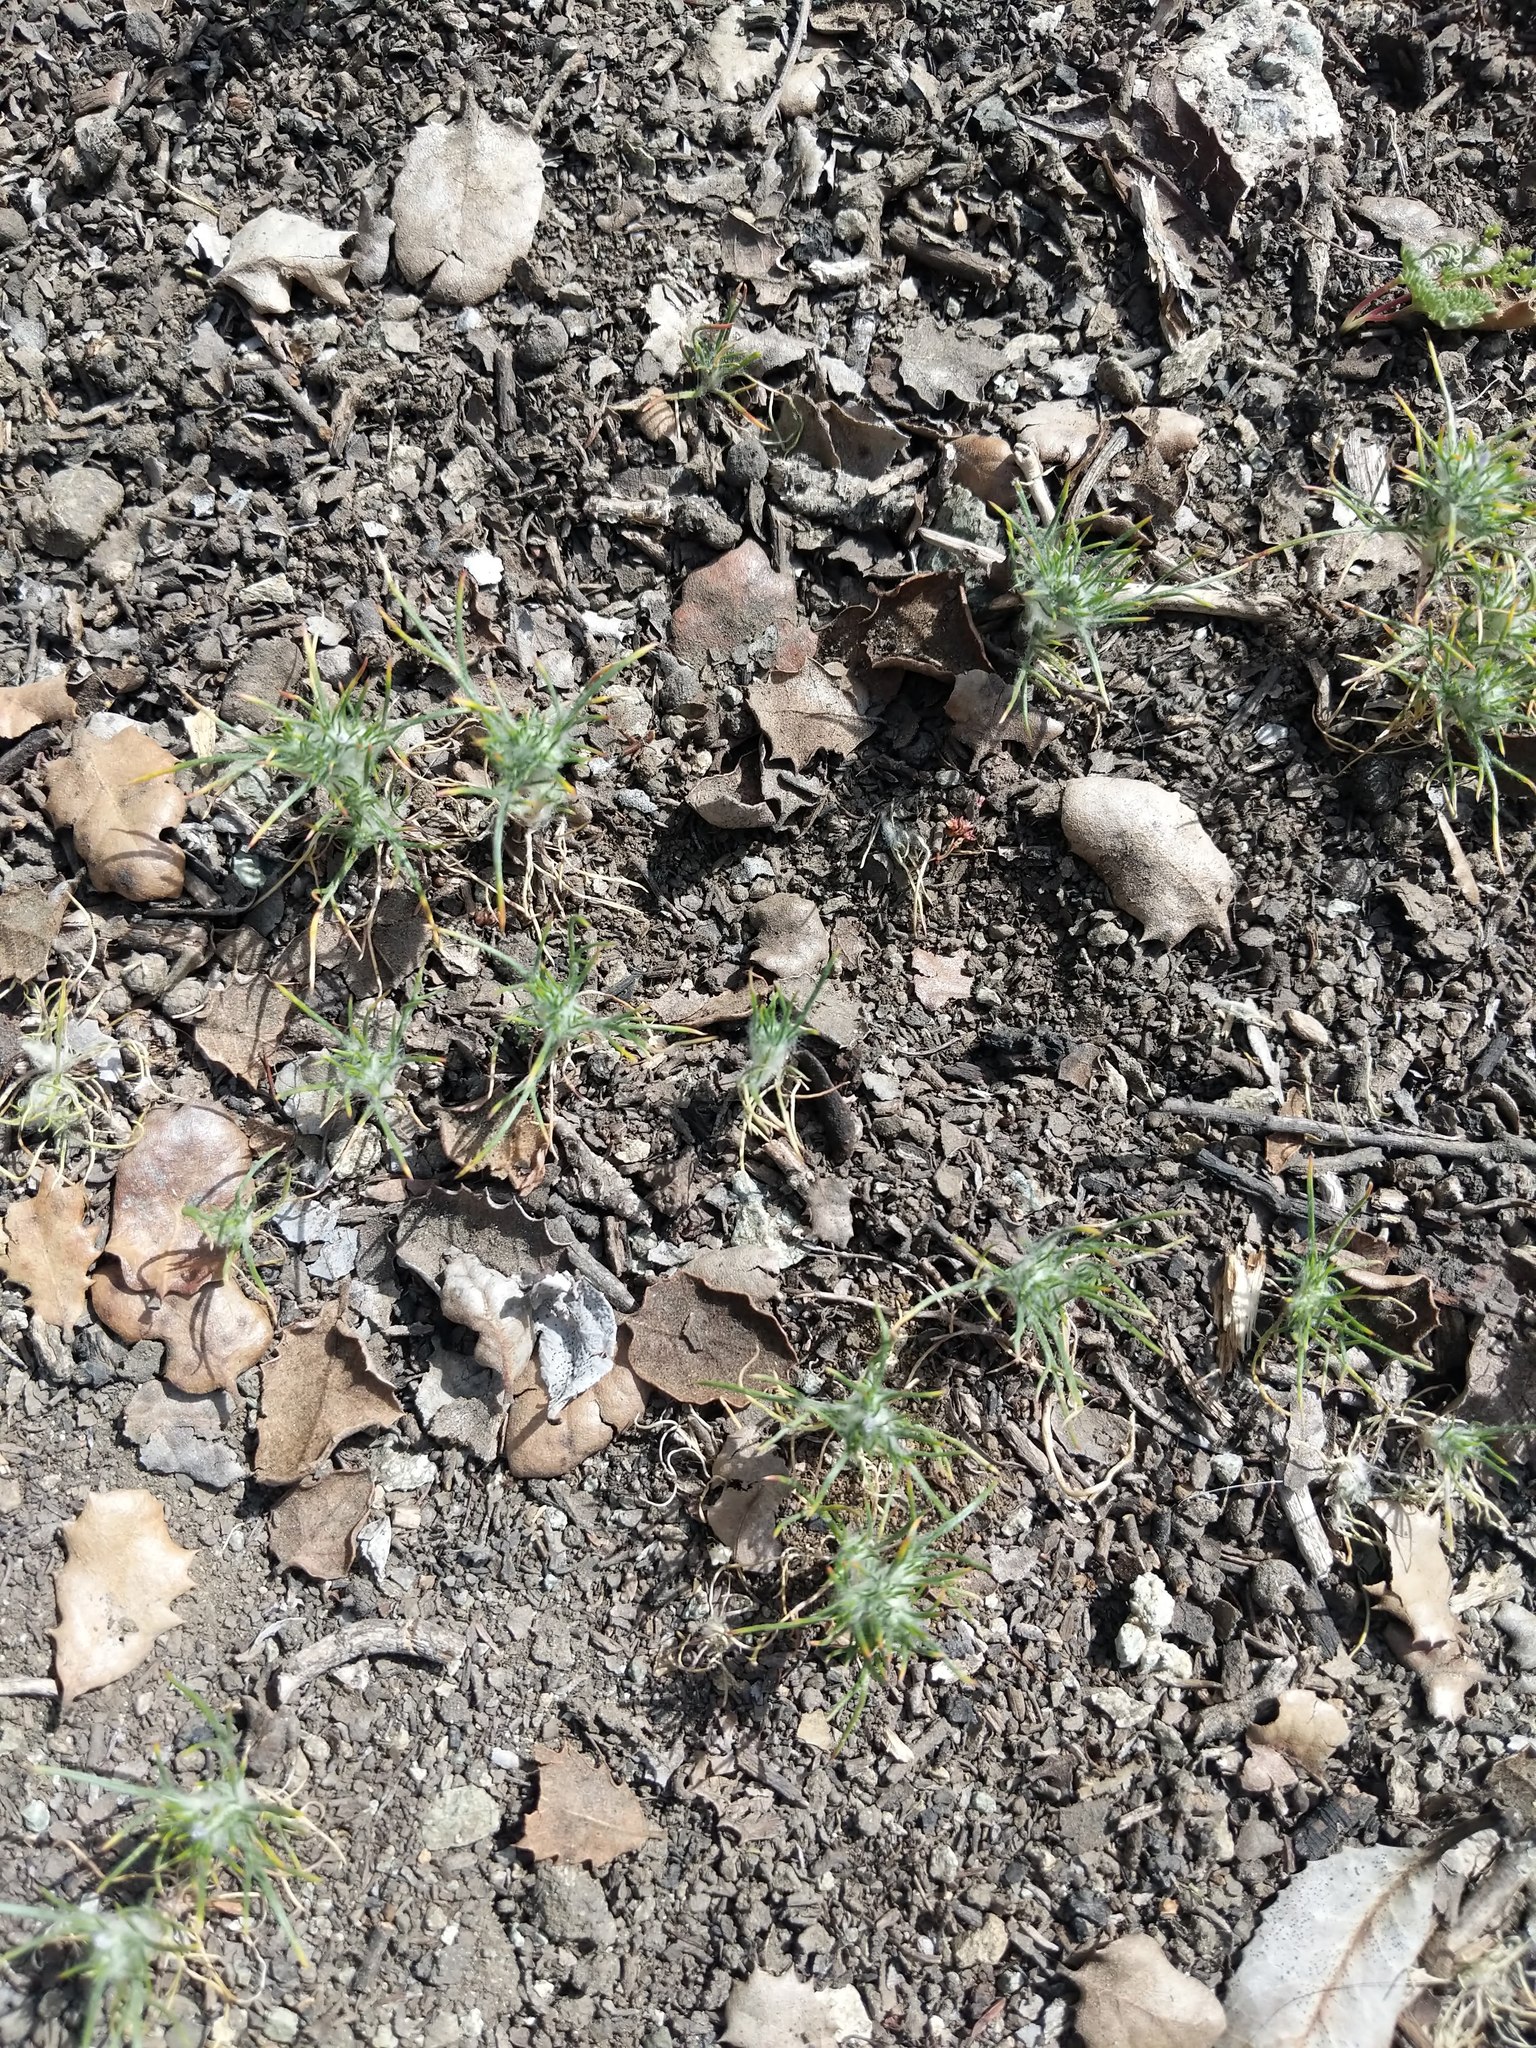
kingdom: Plantae
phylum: Tracheophyta
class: Magnoliopsida
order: Ericales
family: Polemoniaceae
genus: Eriastrum
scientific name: Eriastrum abramsii
